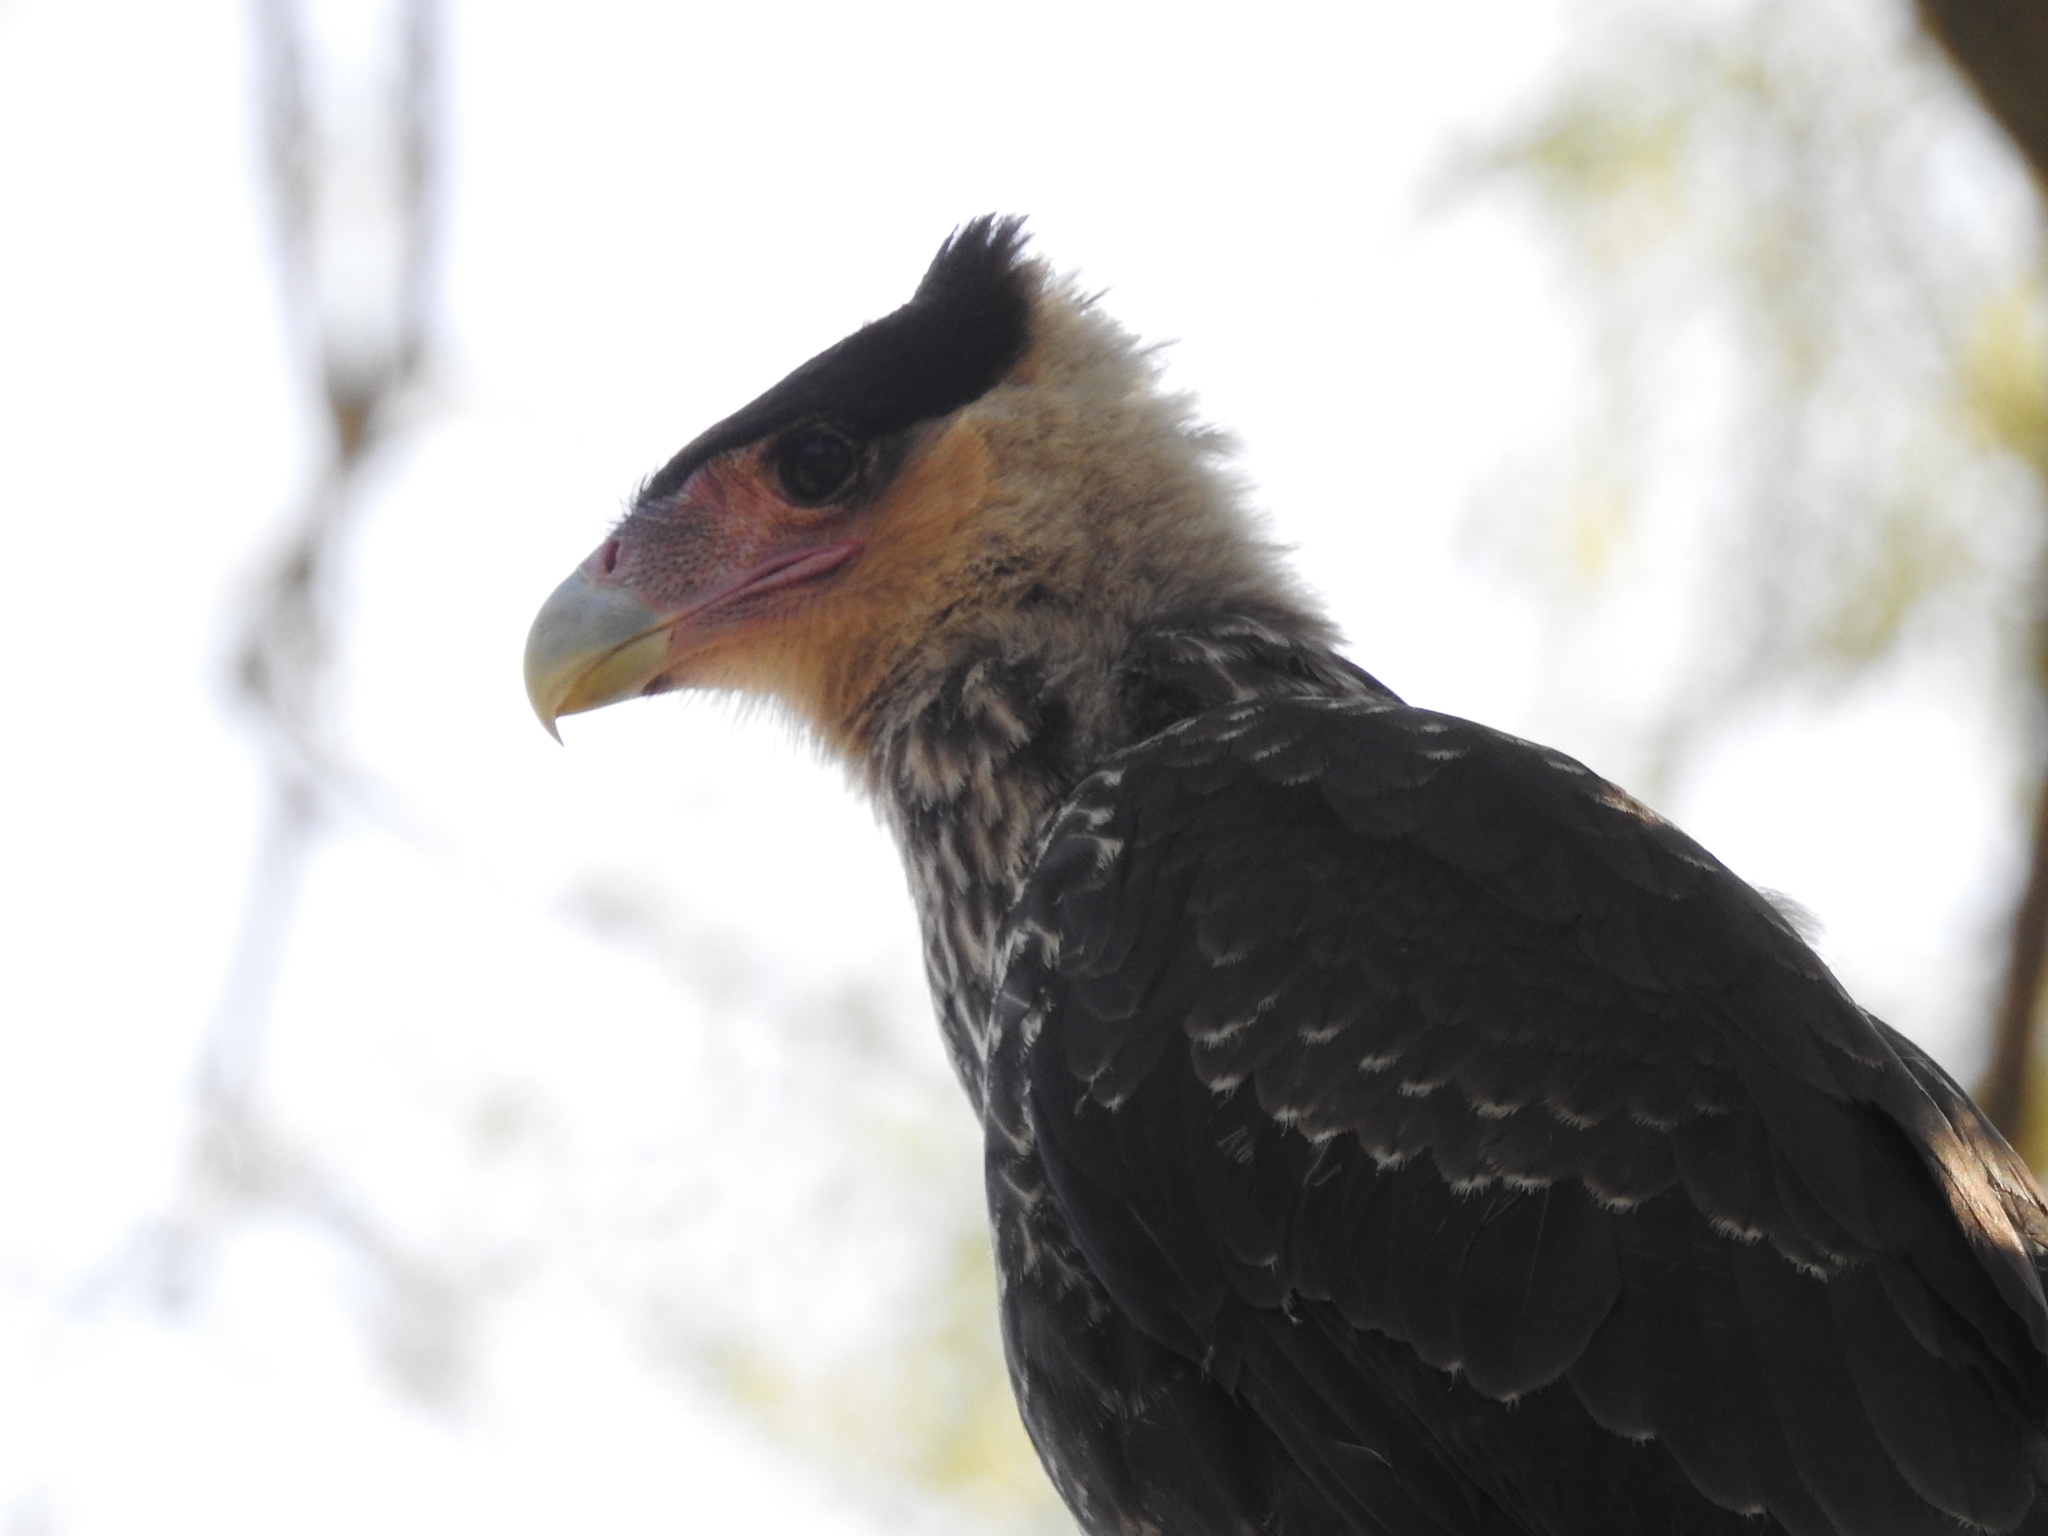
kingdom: Animalia
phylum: Chordata
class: Aves
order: Falconiformes
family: Falconidae
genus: Caracara
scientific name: Caracara plancus
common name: Southern caracara
